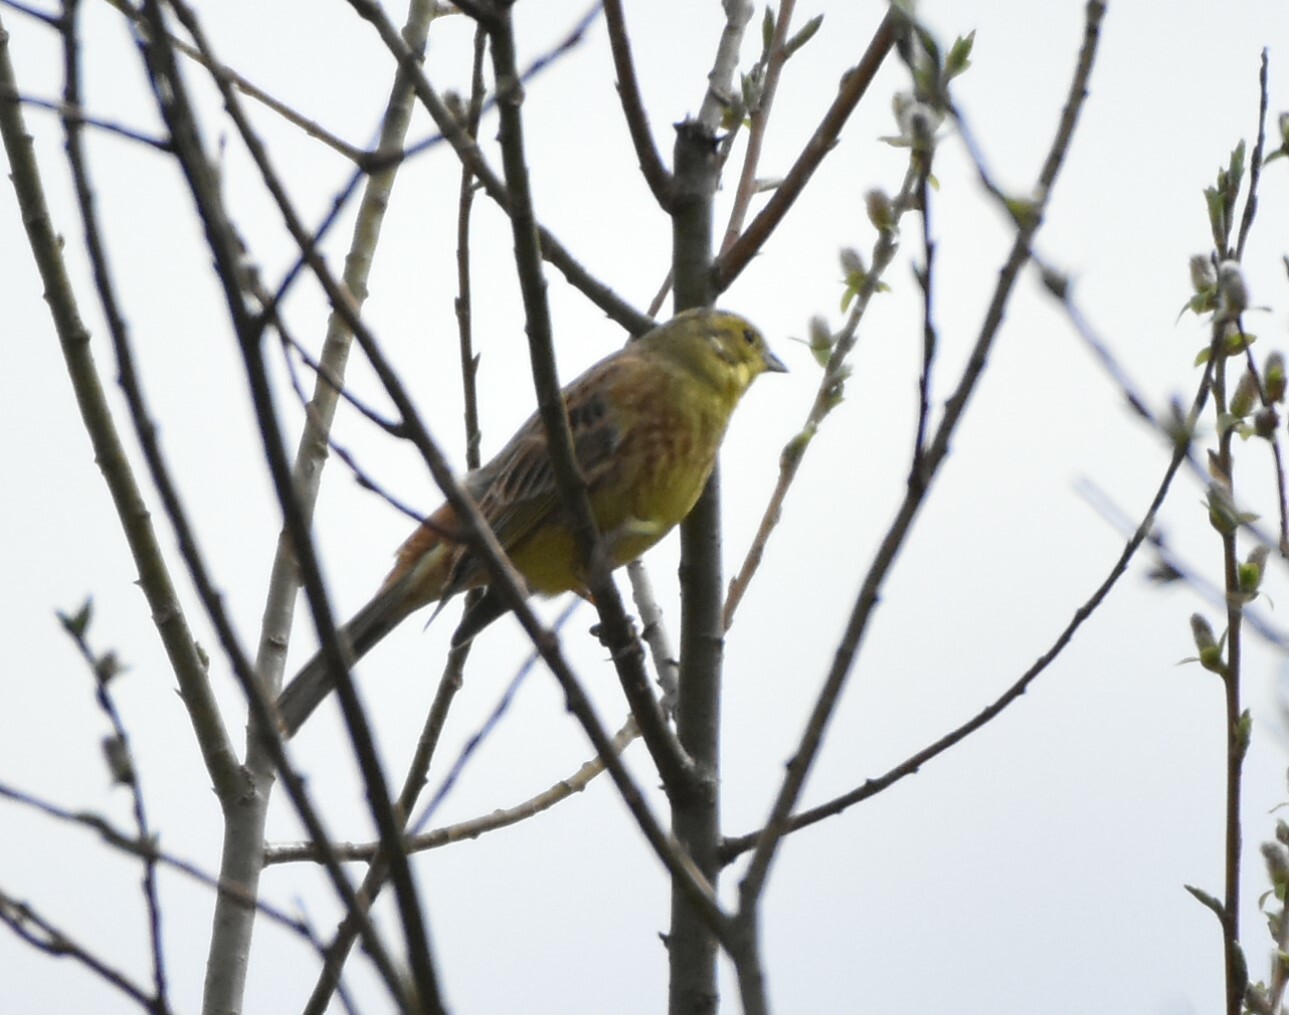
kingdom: Animalia
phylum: Chordata
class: Aves
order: Passeriformes
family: Emberizidae
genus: Emberiza
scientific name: Emberiza citrinella
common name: Yellowhammer
